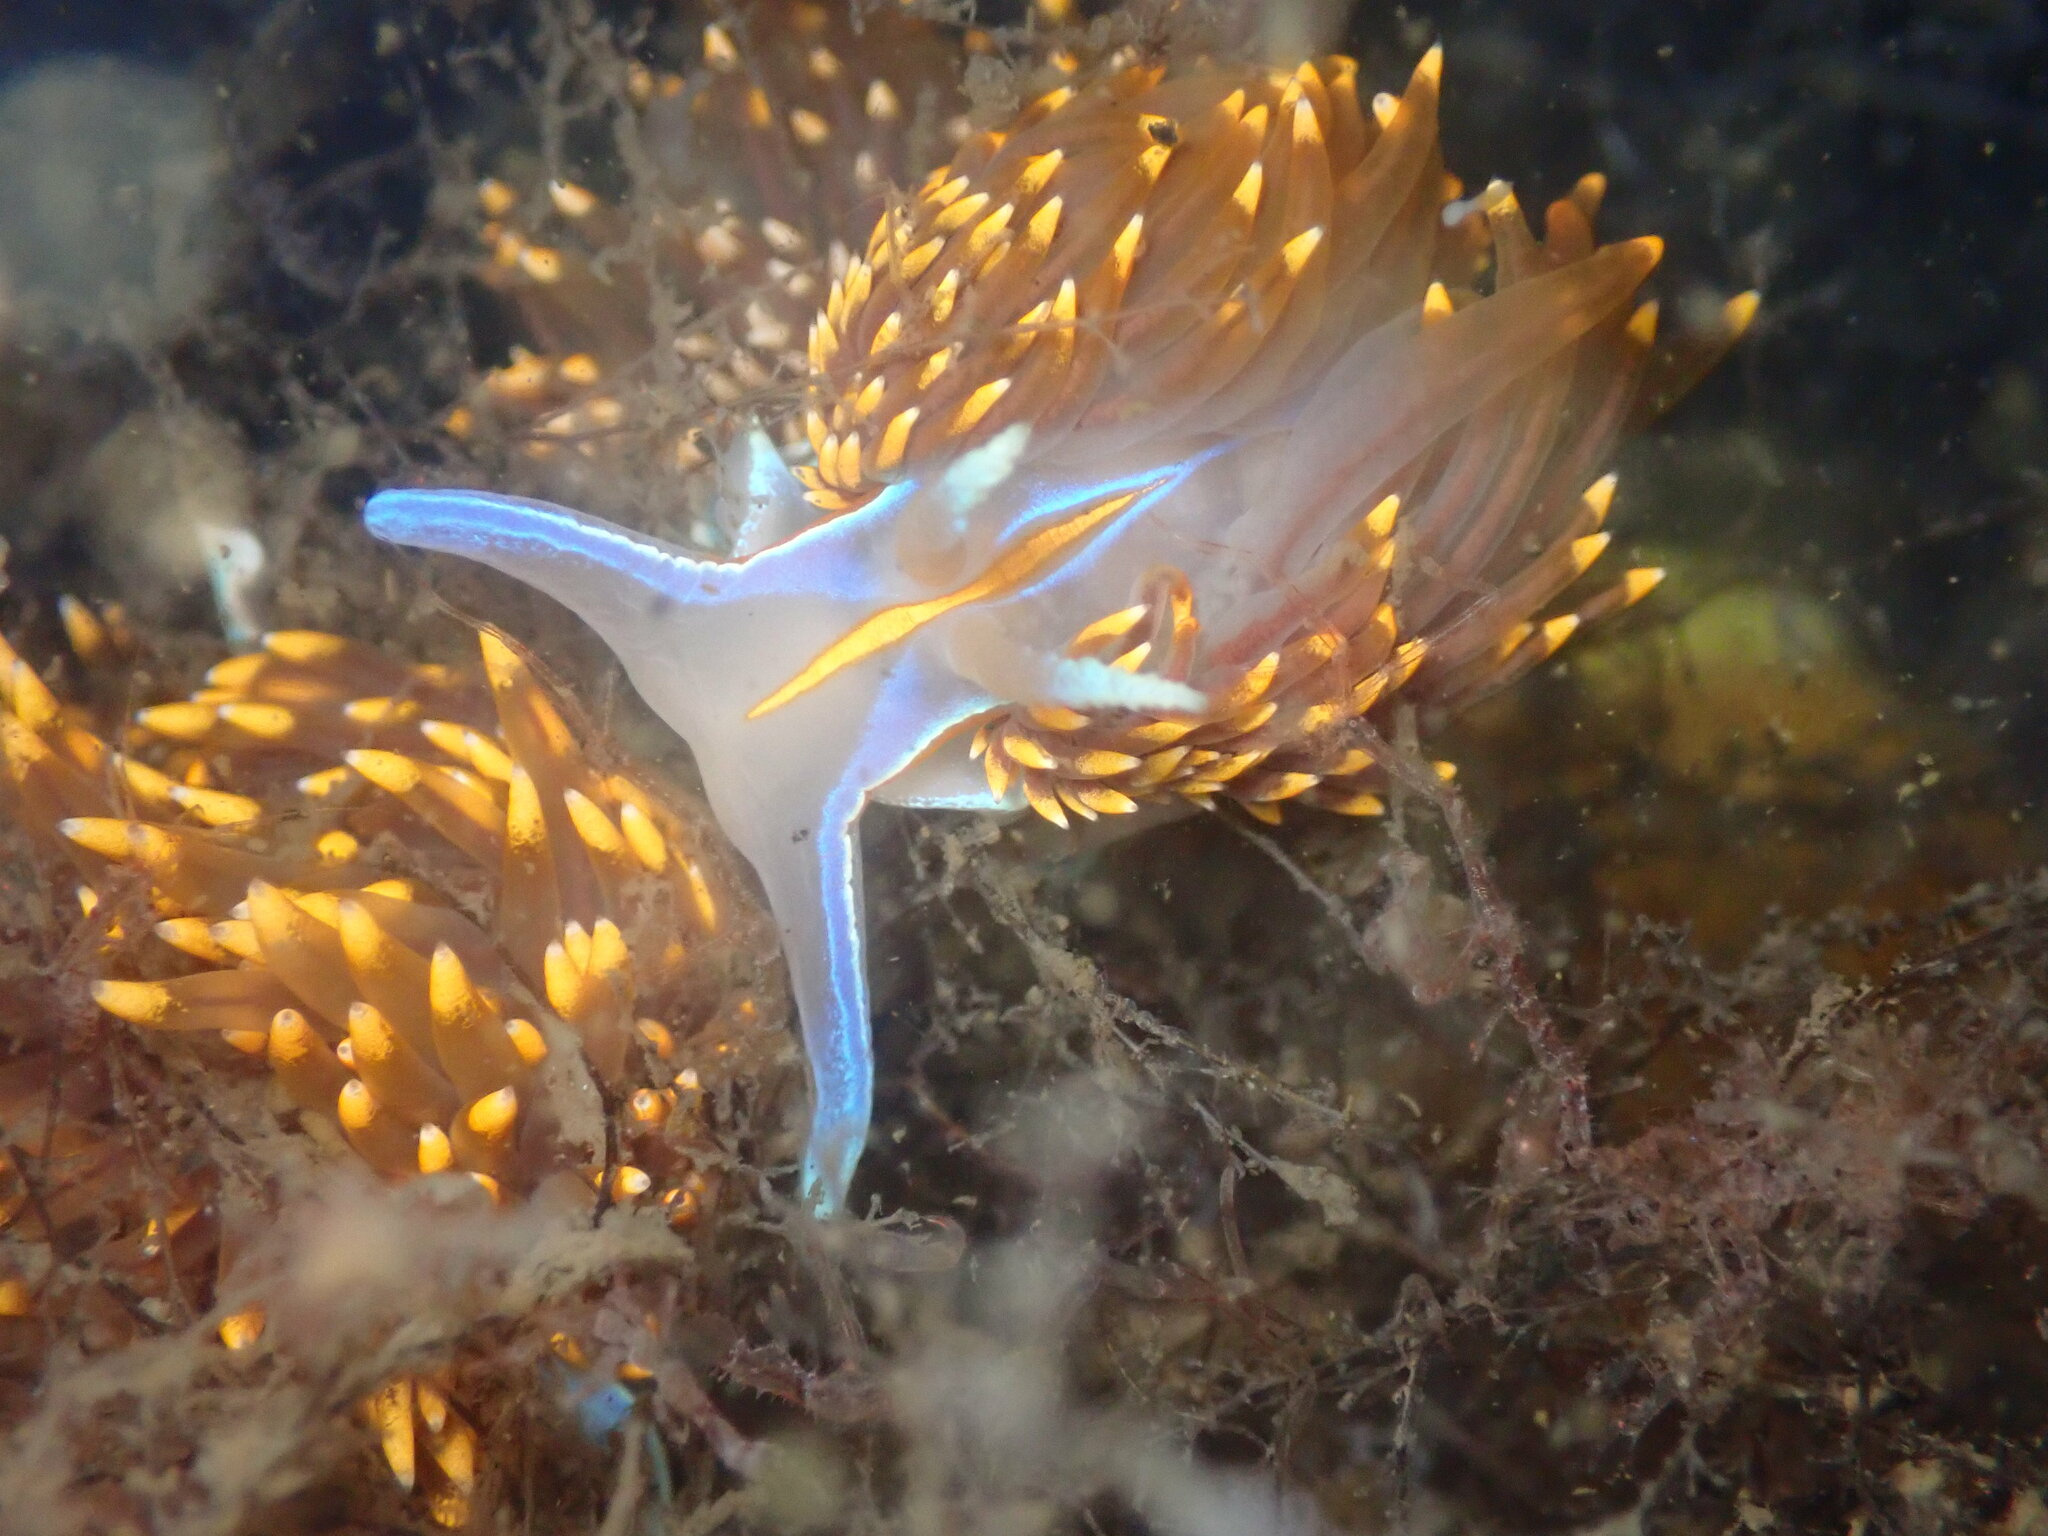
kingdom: Animalia
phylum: Mollusca
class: Gastropoda
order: Nudibranchia
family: Myrrhinidae
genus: Hermissenda
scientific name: Hermissenda opalescens
